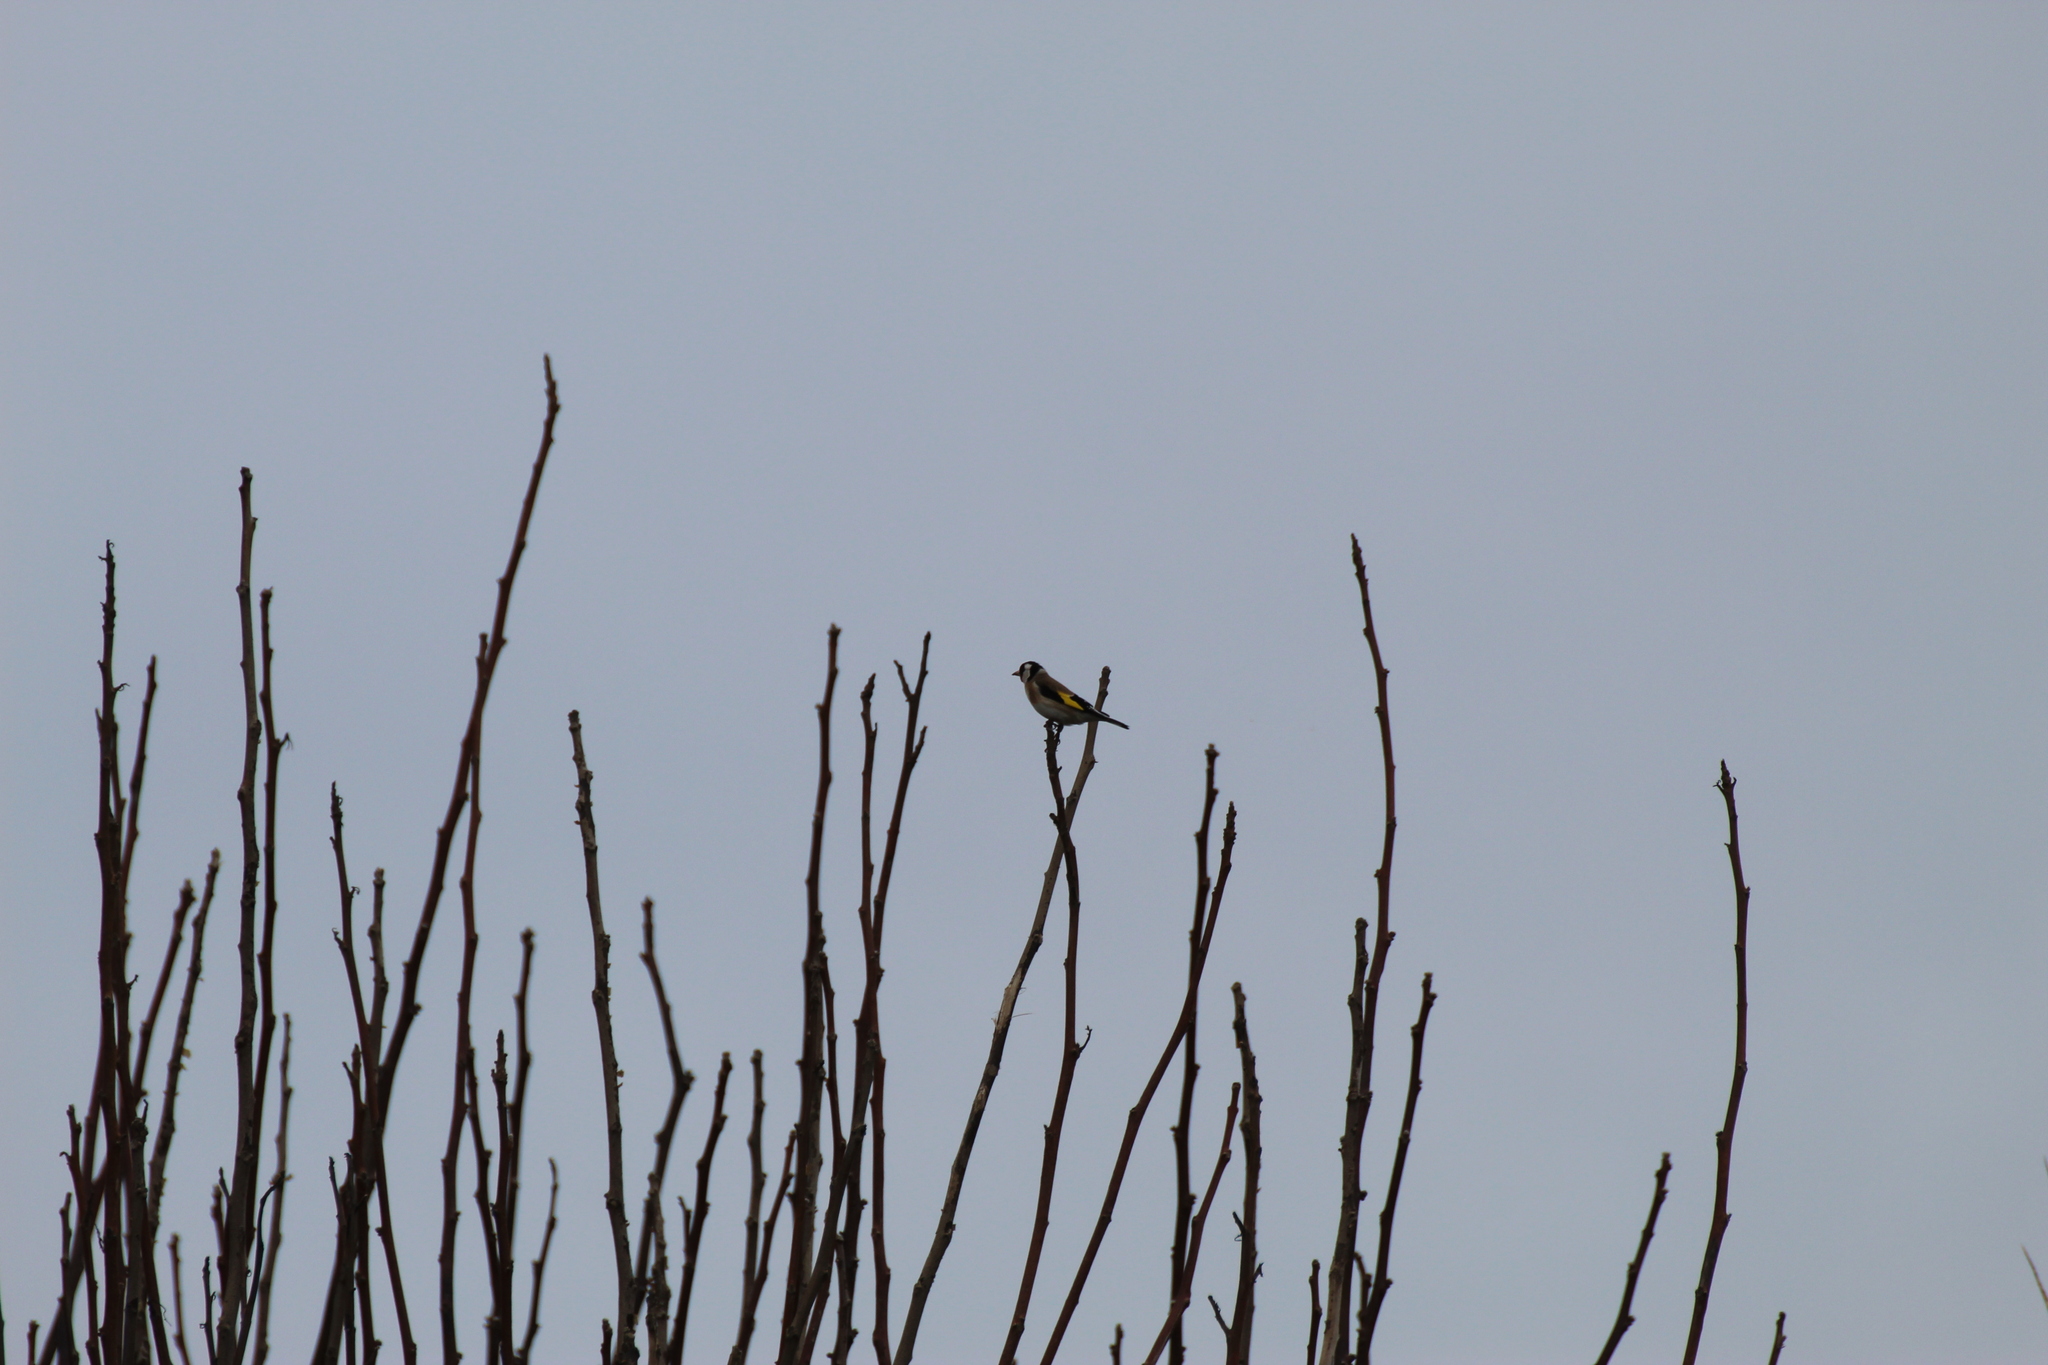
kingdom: Animalia
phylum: Chordata
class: Aves
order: Passeriformes
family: Fringillidae
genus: Carduelis
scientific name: Carduelis carduelis
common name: European goldfinch
